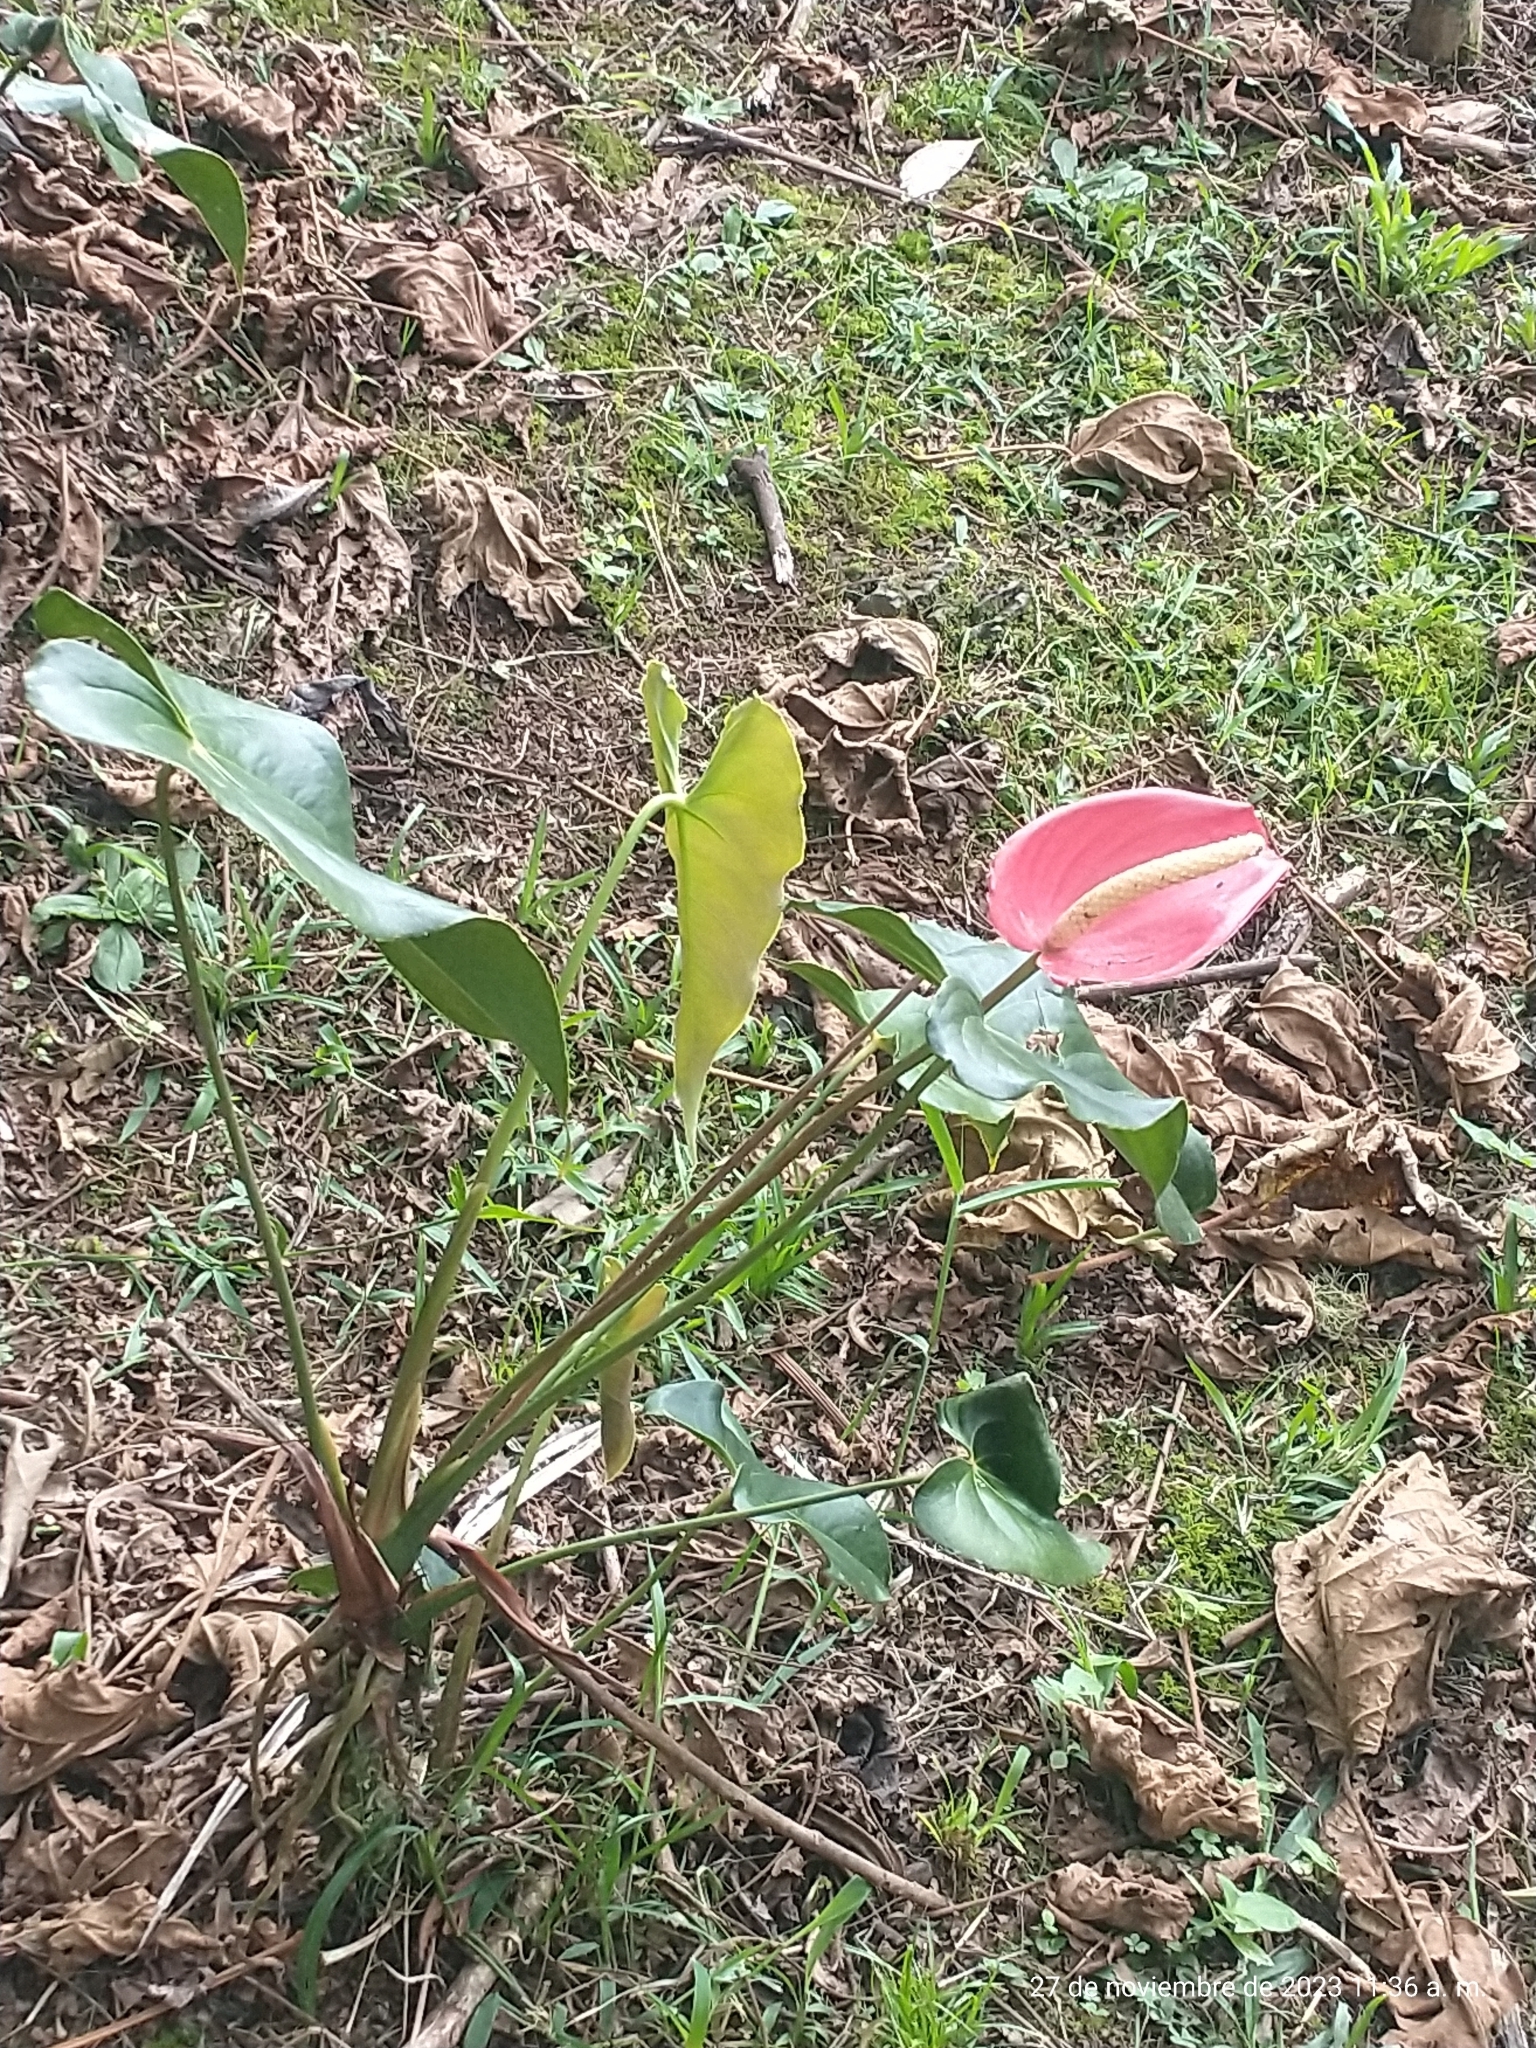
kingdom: Plantae
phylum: Tracheophyta
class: Liliopsida
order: Alismatales
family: Araceae
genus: Anthurium
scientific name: Anthurium andraeanum
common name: Flamingo-flower
